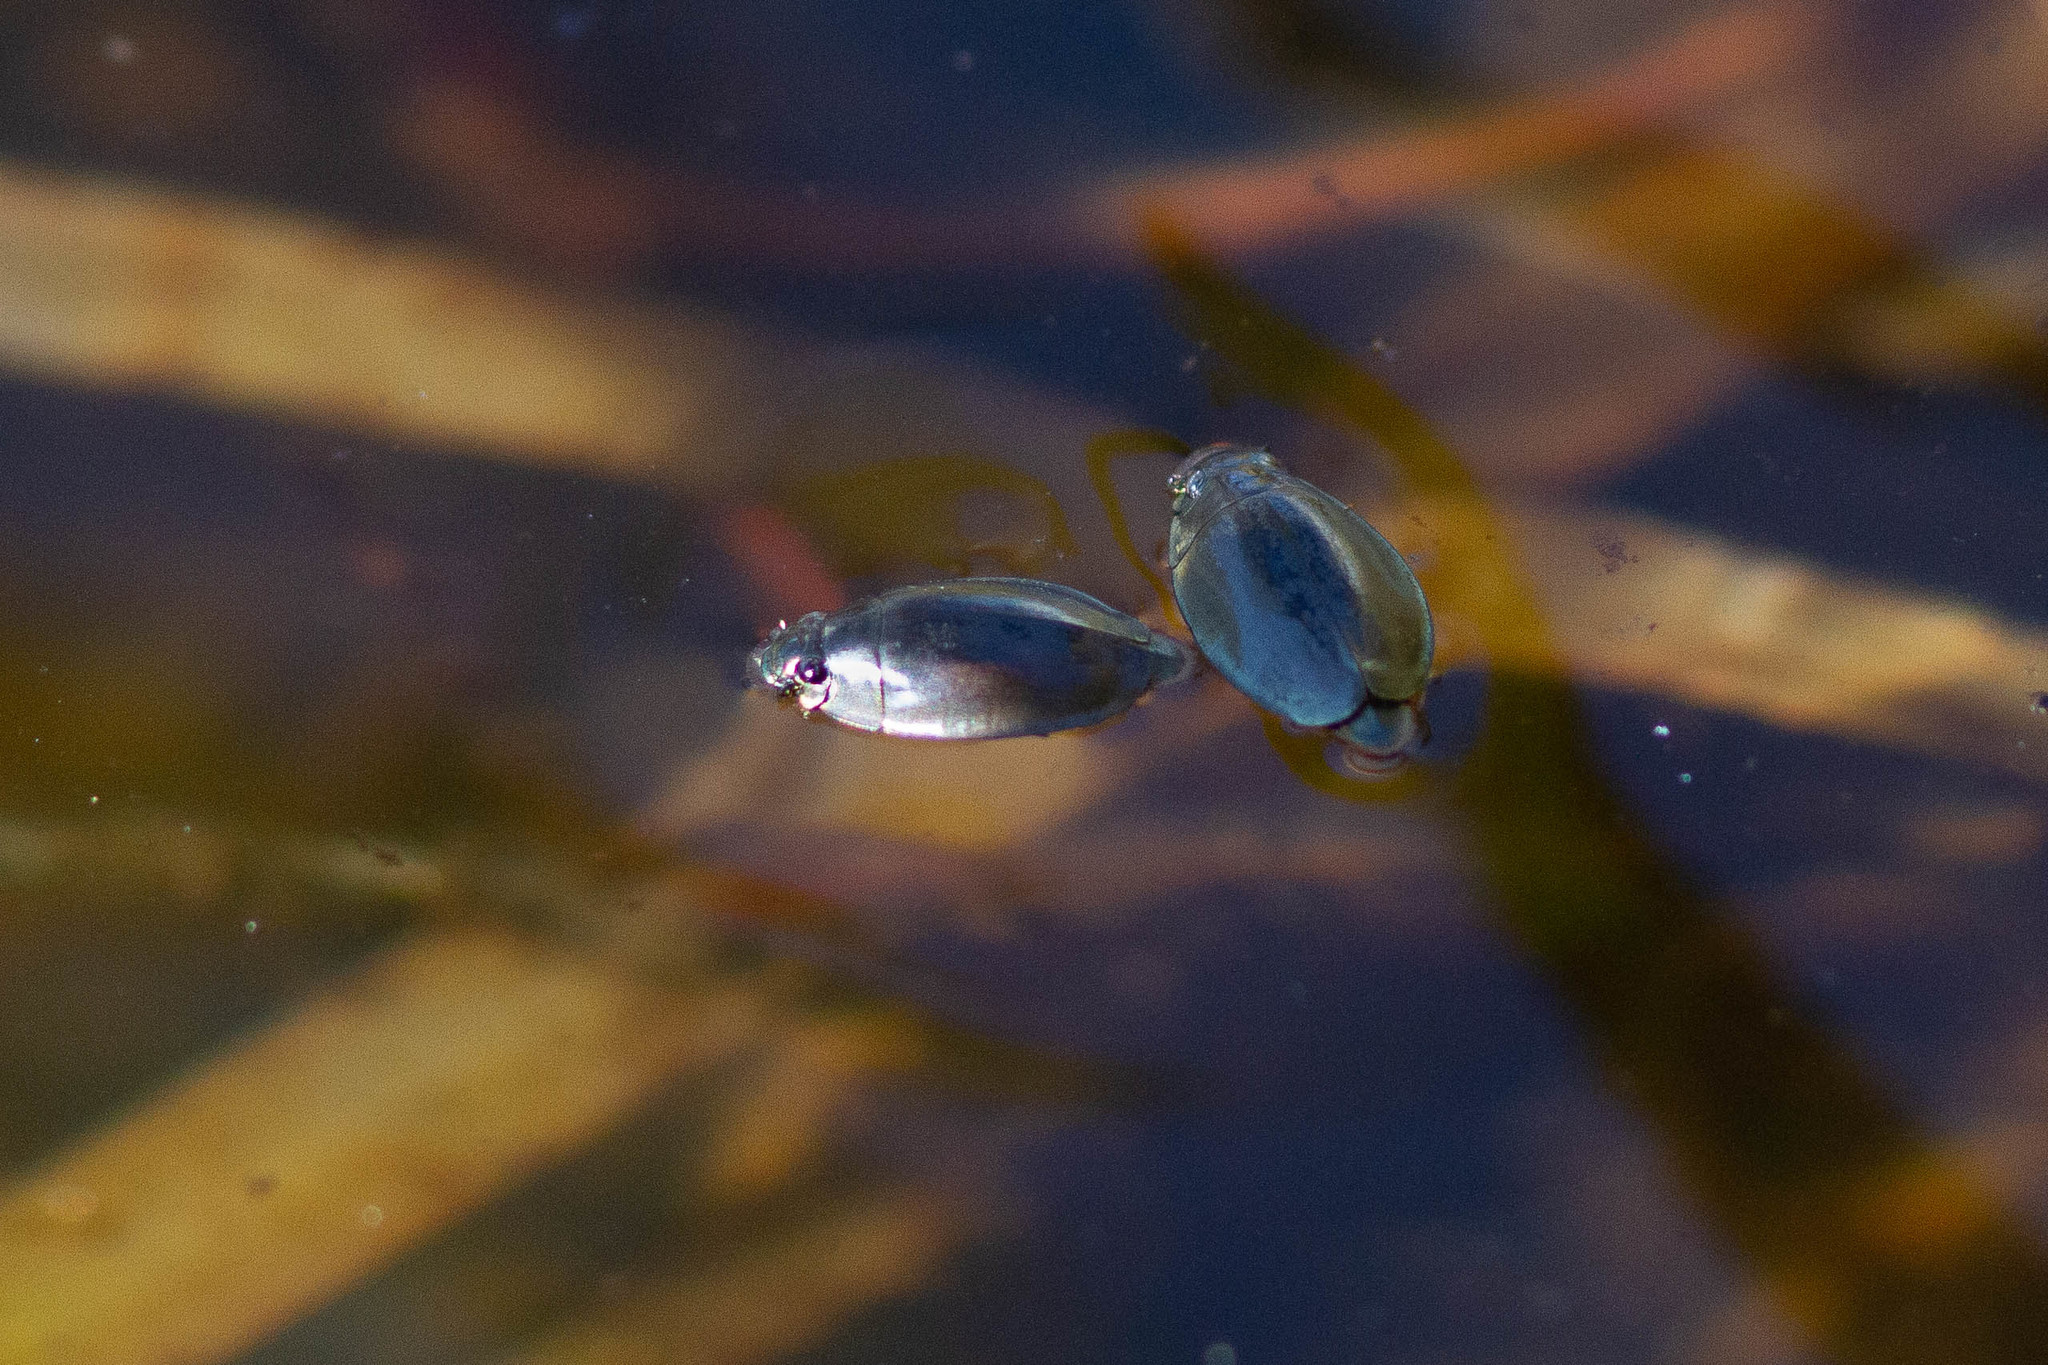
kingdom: Animalia
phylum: Arthropoda
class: Insecta
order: Coleoptera
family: Gyrinidae
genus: Dineutus
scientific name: Dineutus
